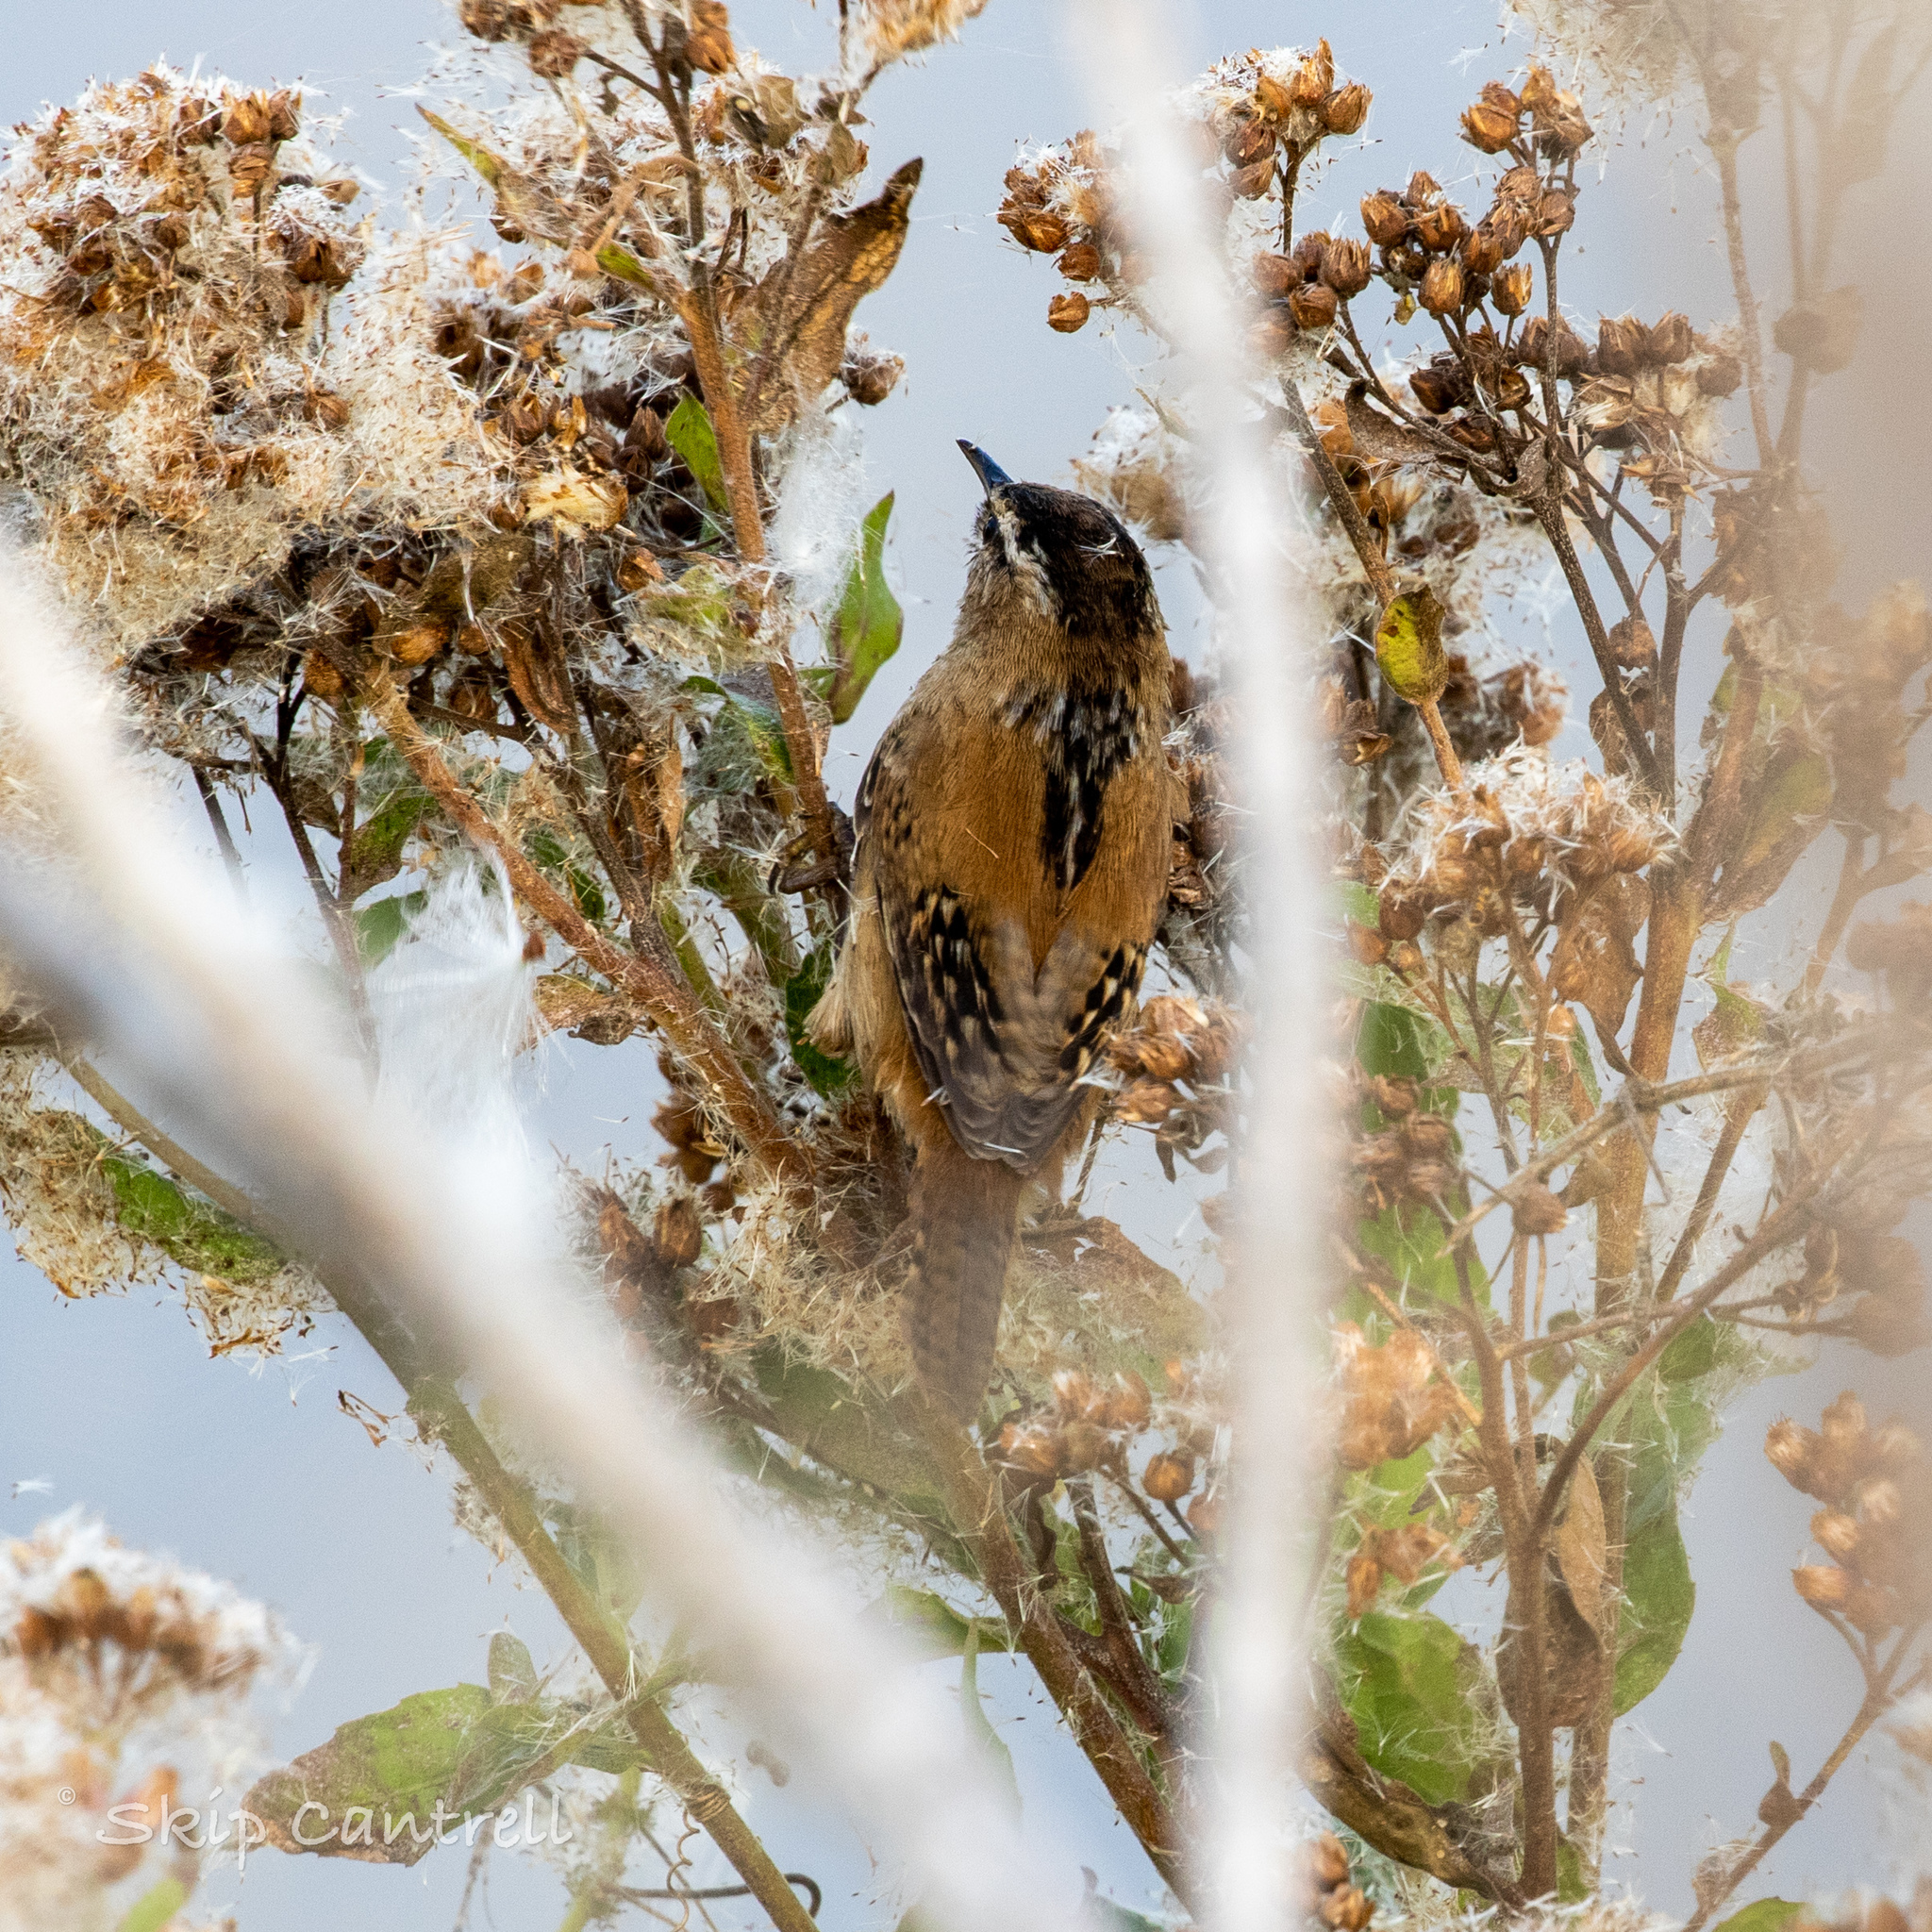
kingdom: Animalia
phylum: Chordata
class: Aves
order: Passeriformes
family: Troglodytidae
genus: Cistothorus
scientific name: Cistothorus palustris
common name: Marsh wren
